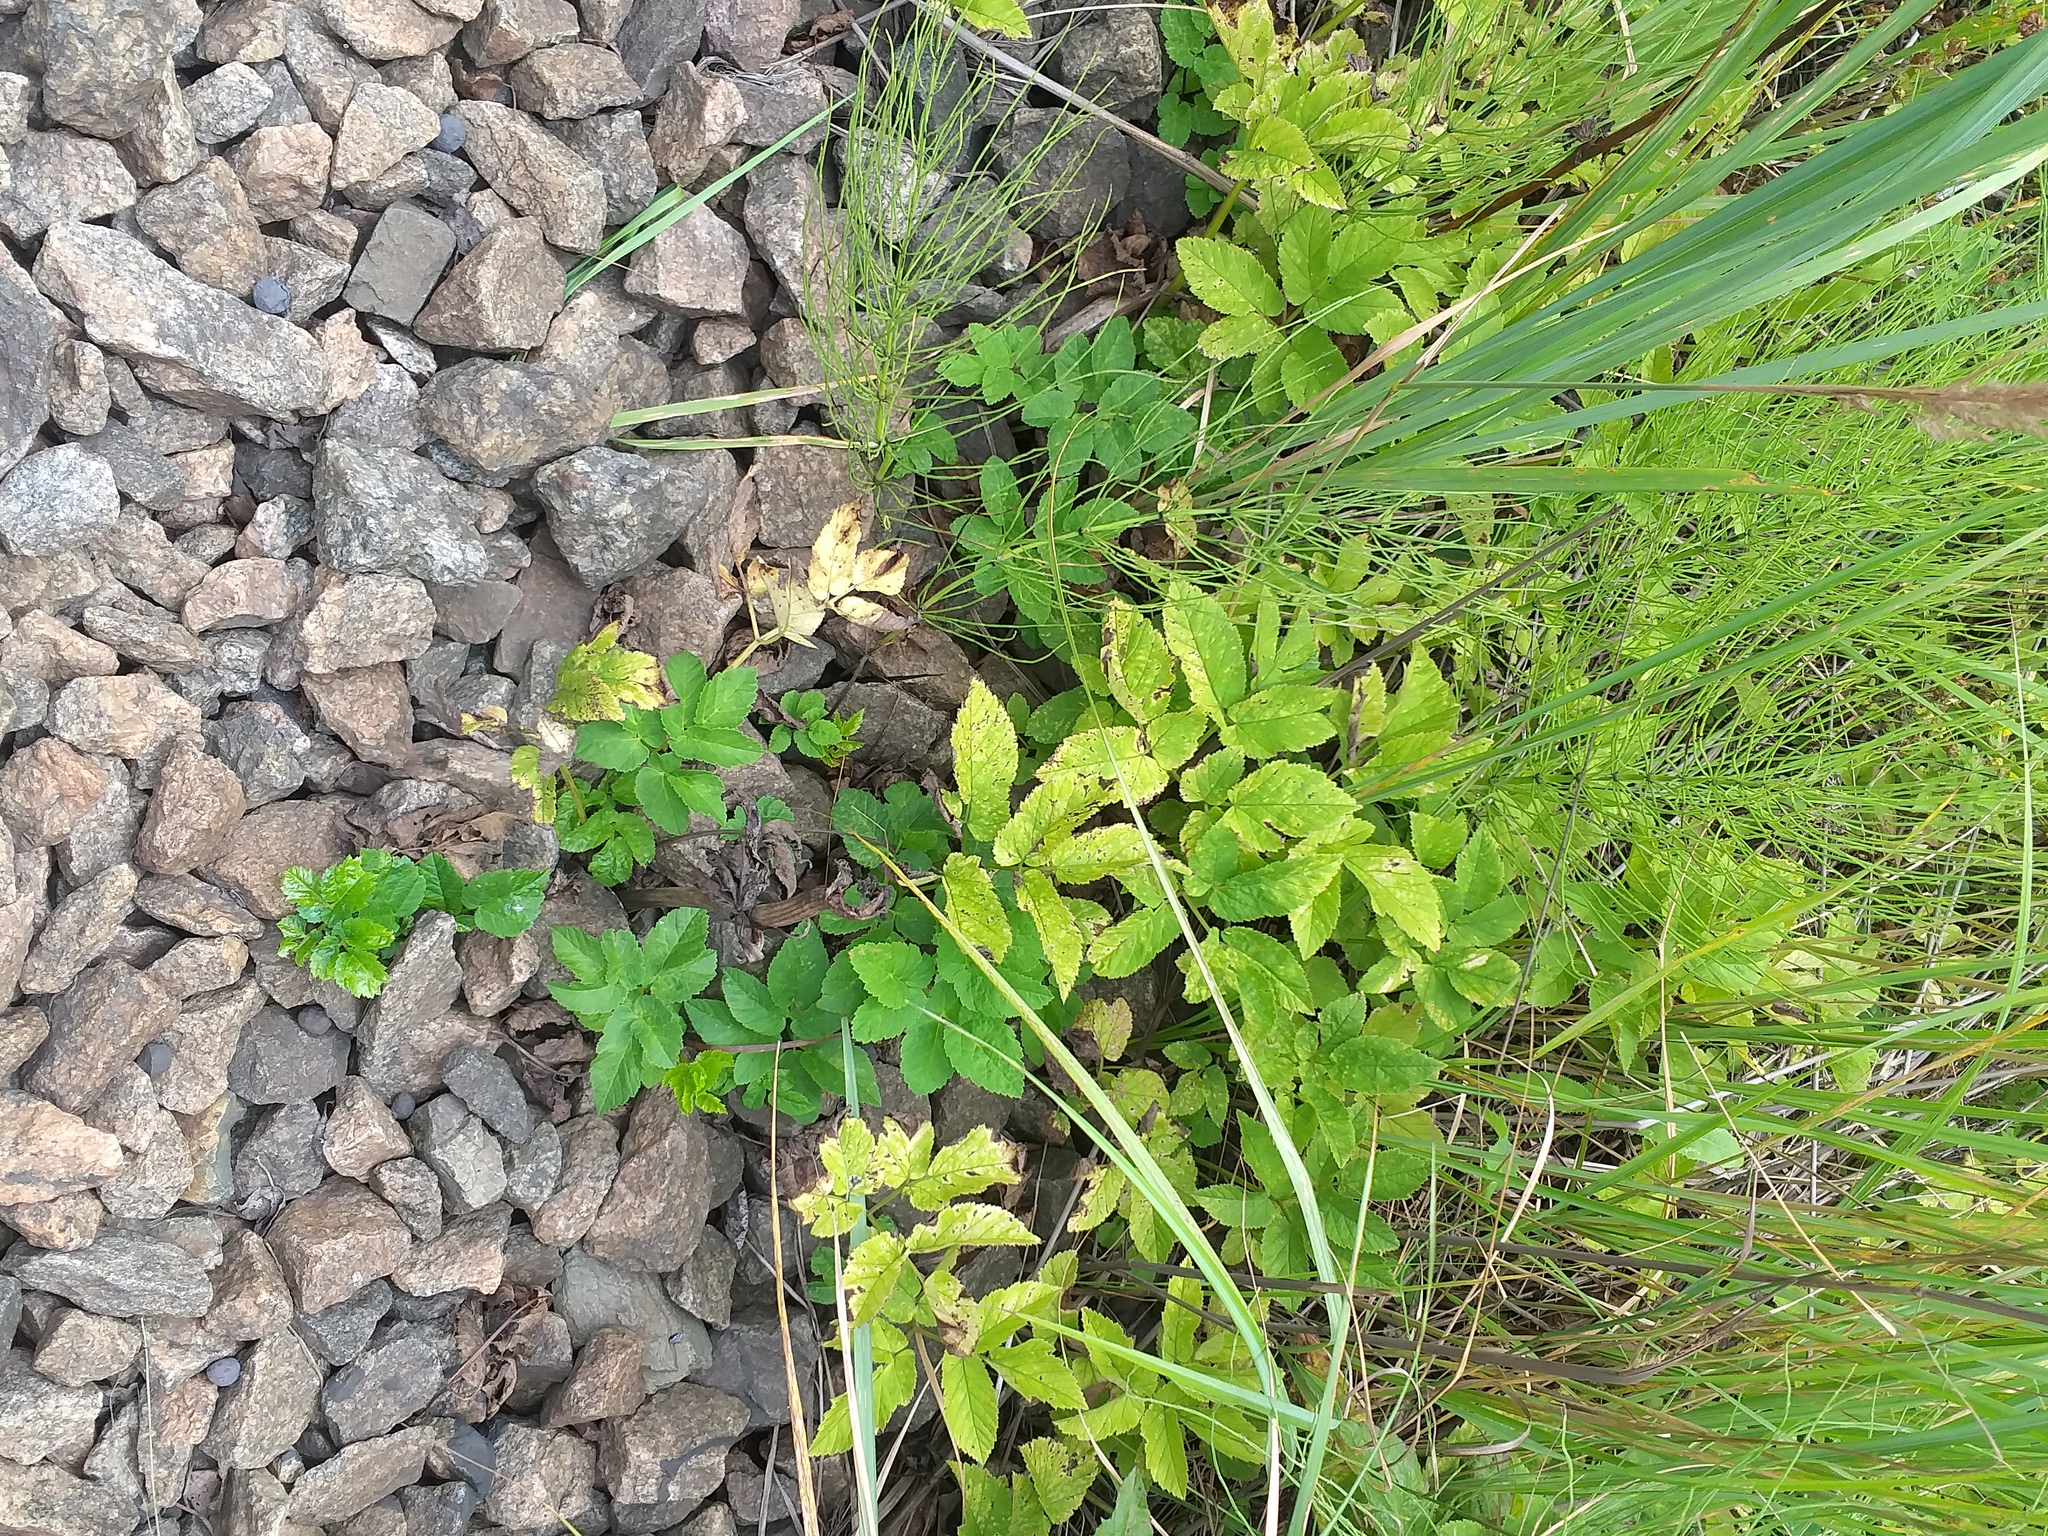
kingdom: Plantae
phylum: Tracheophyta
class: Magnoliopsida
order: Apiales
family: Apiaceae
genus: Aegopodium
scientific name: Aegopodium podagraria
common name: Ground-elder
